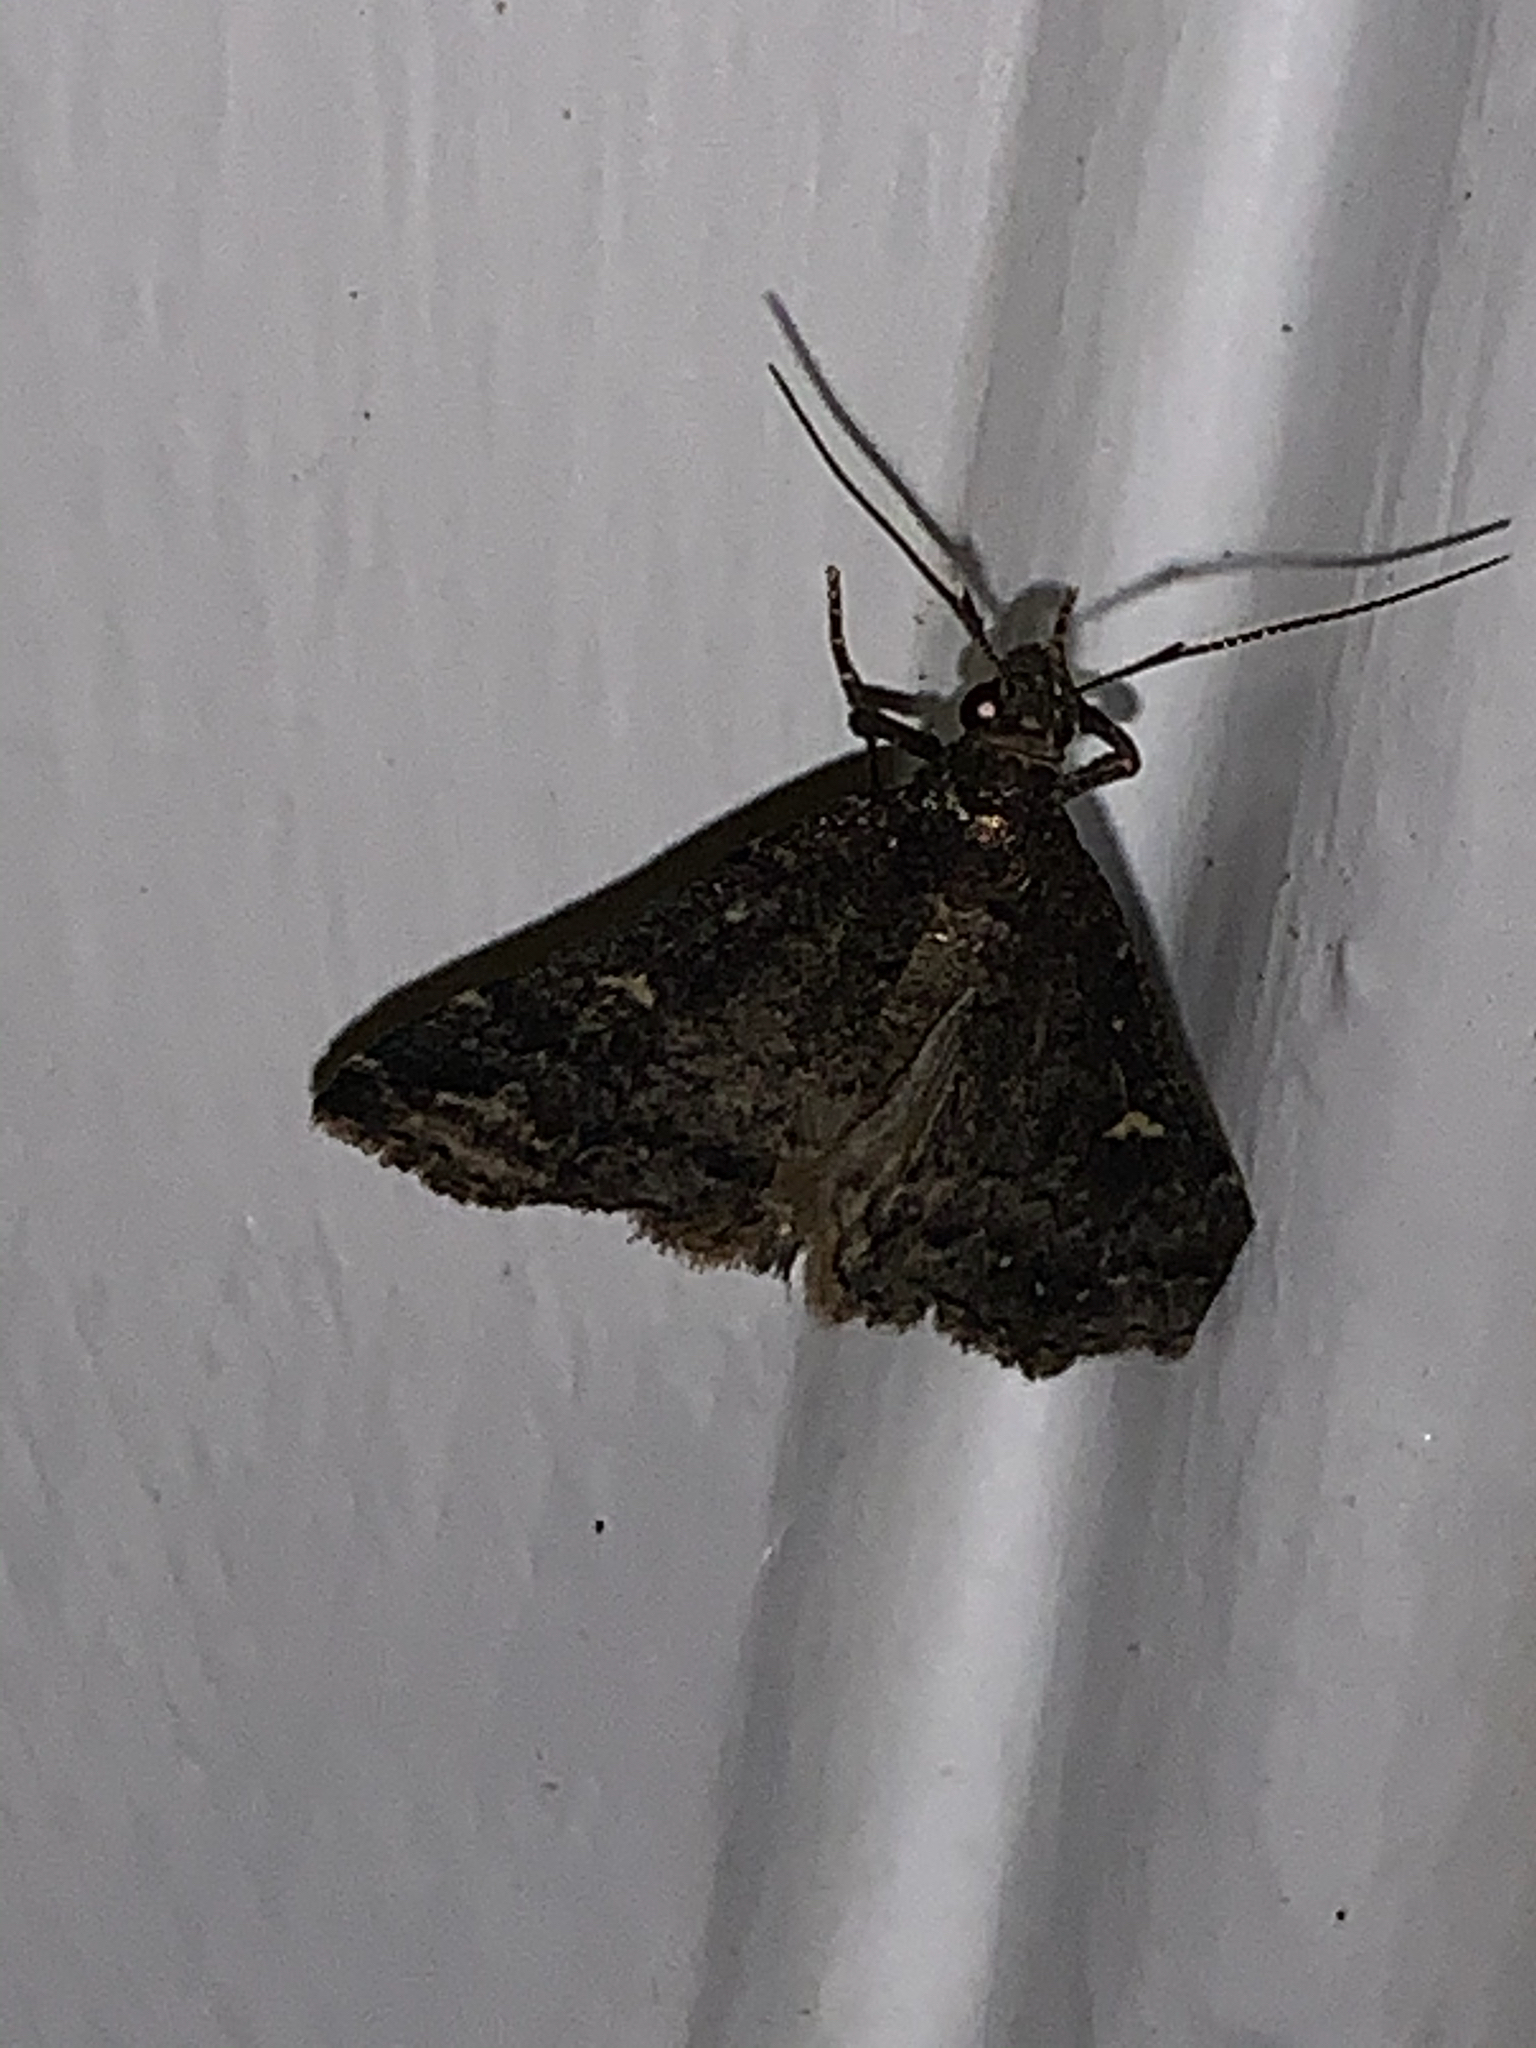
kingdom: Animalia
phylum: Arthropoda
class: Insecta
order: Lepidoptera
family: Erebidae
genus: Tetanolita
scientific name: Tetanolita mynesalis
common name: Smoky tetanolita moth
